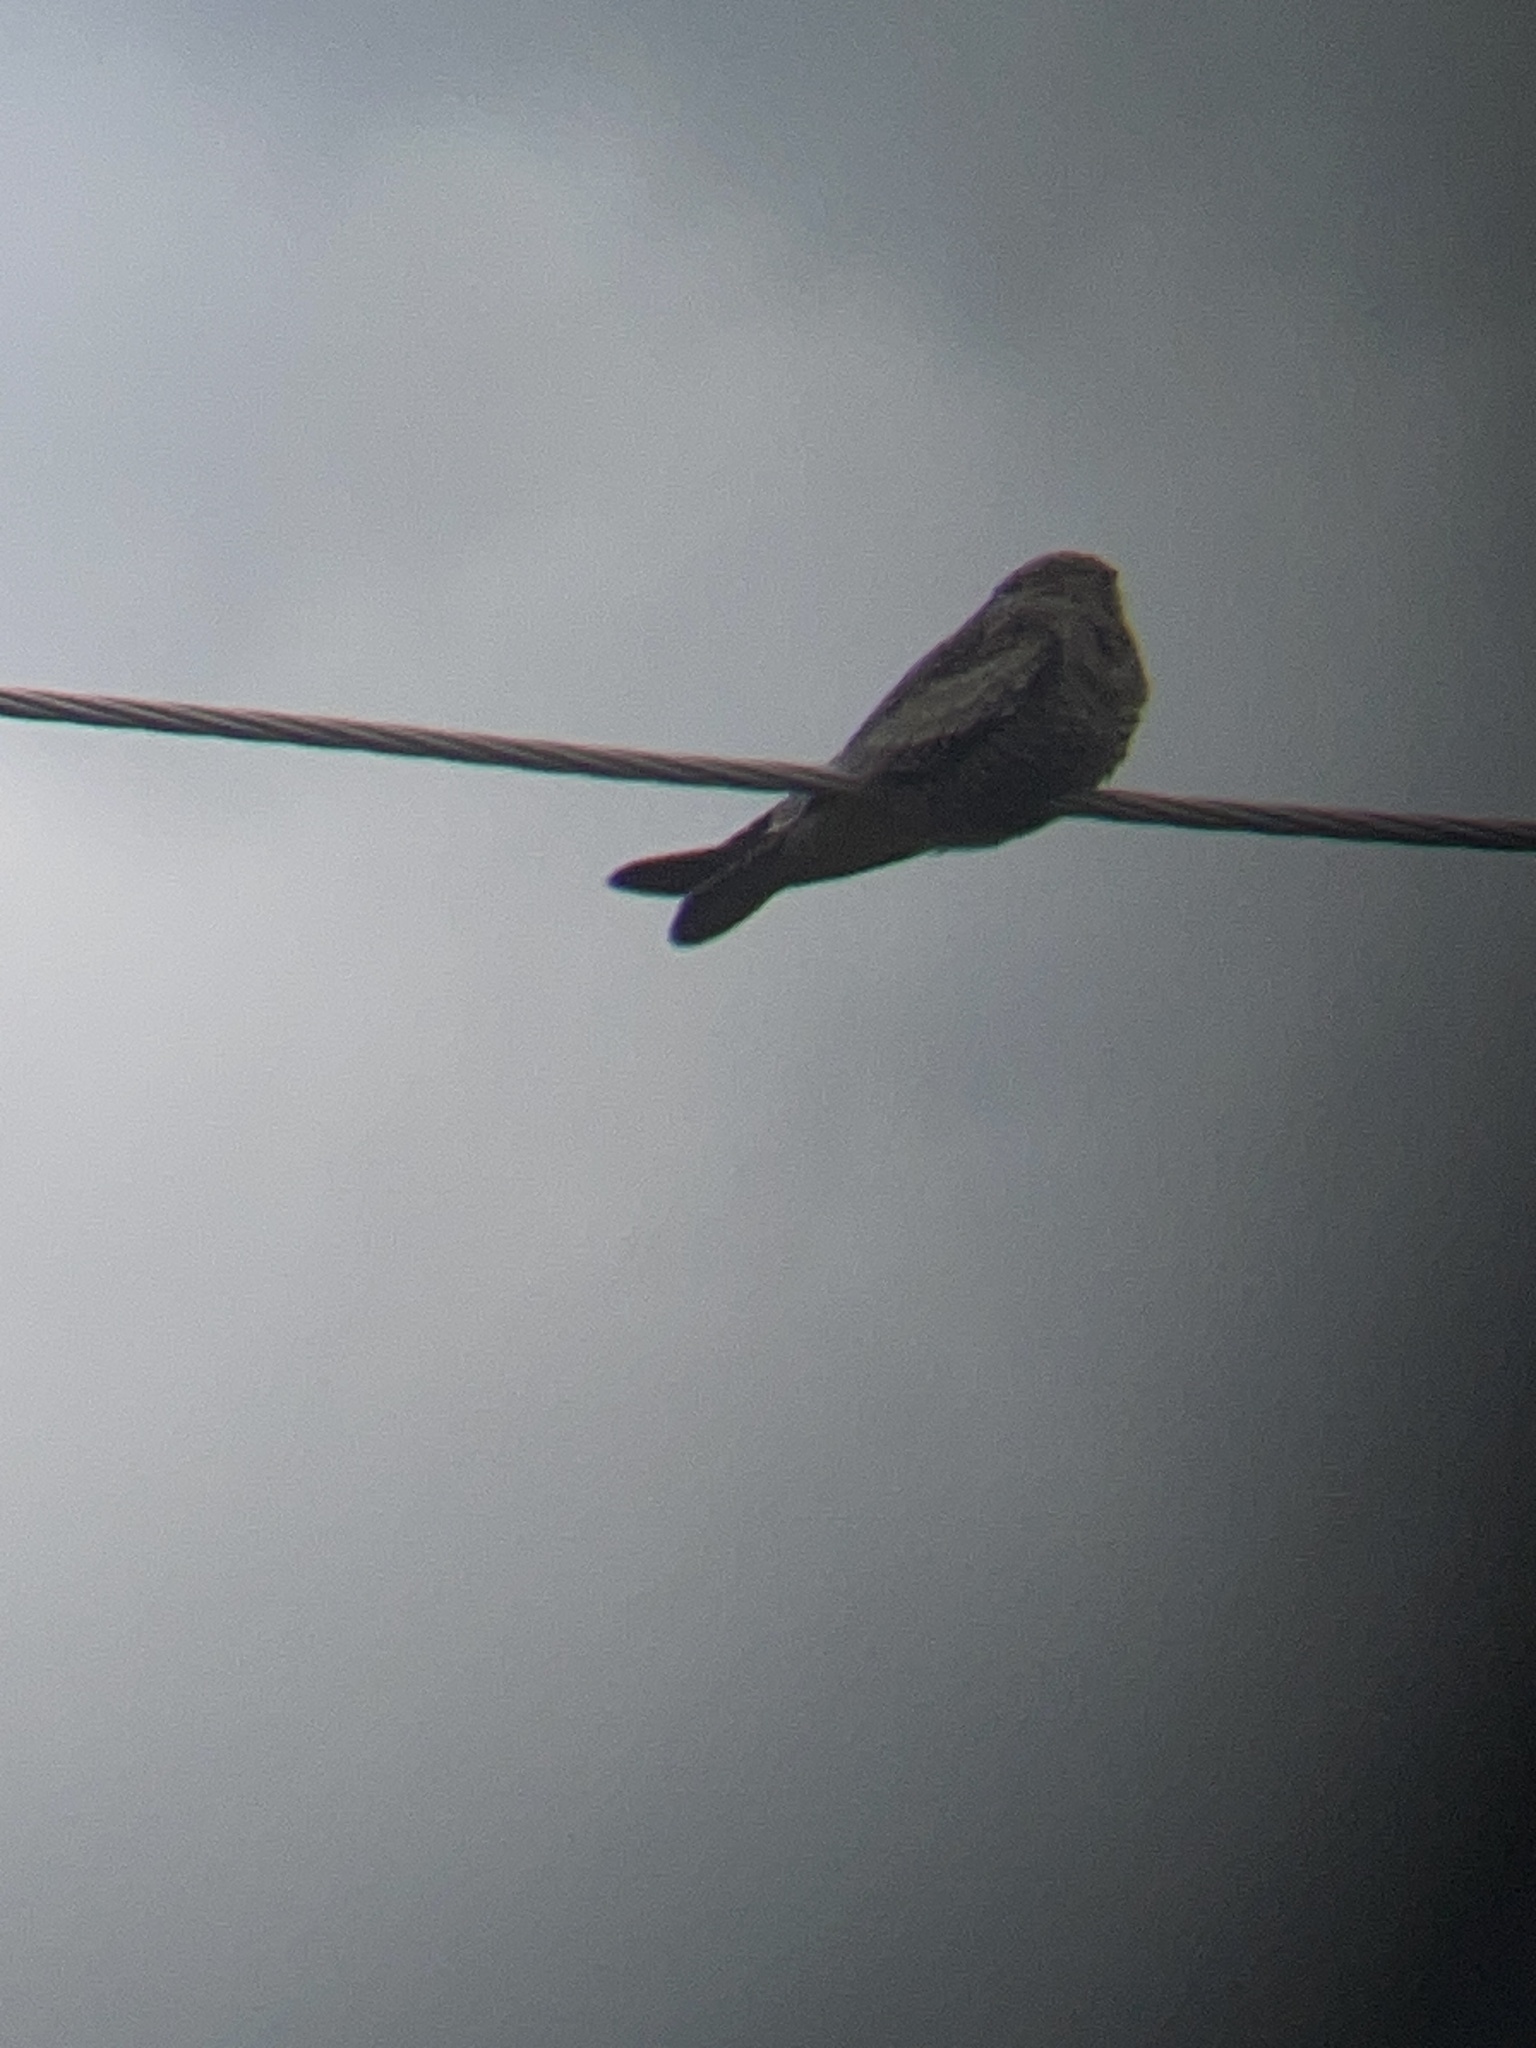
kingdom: Animalia
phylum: Chordata
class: Aves
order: Caprimulgiformes
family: Caprimulgidae
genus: Chordeiles
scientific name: Chordeiles minor
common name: Common nighthawk
